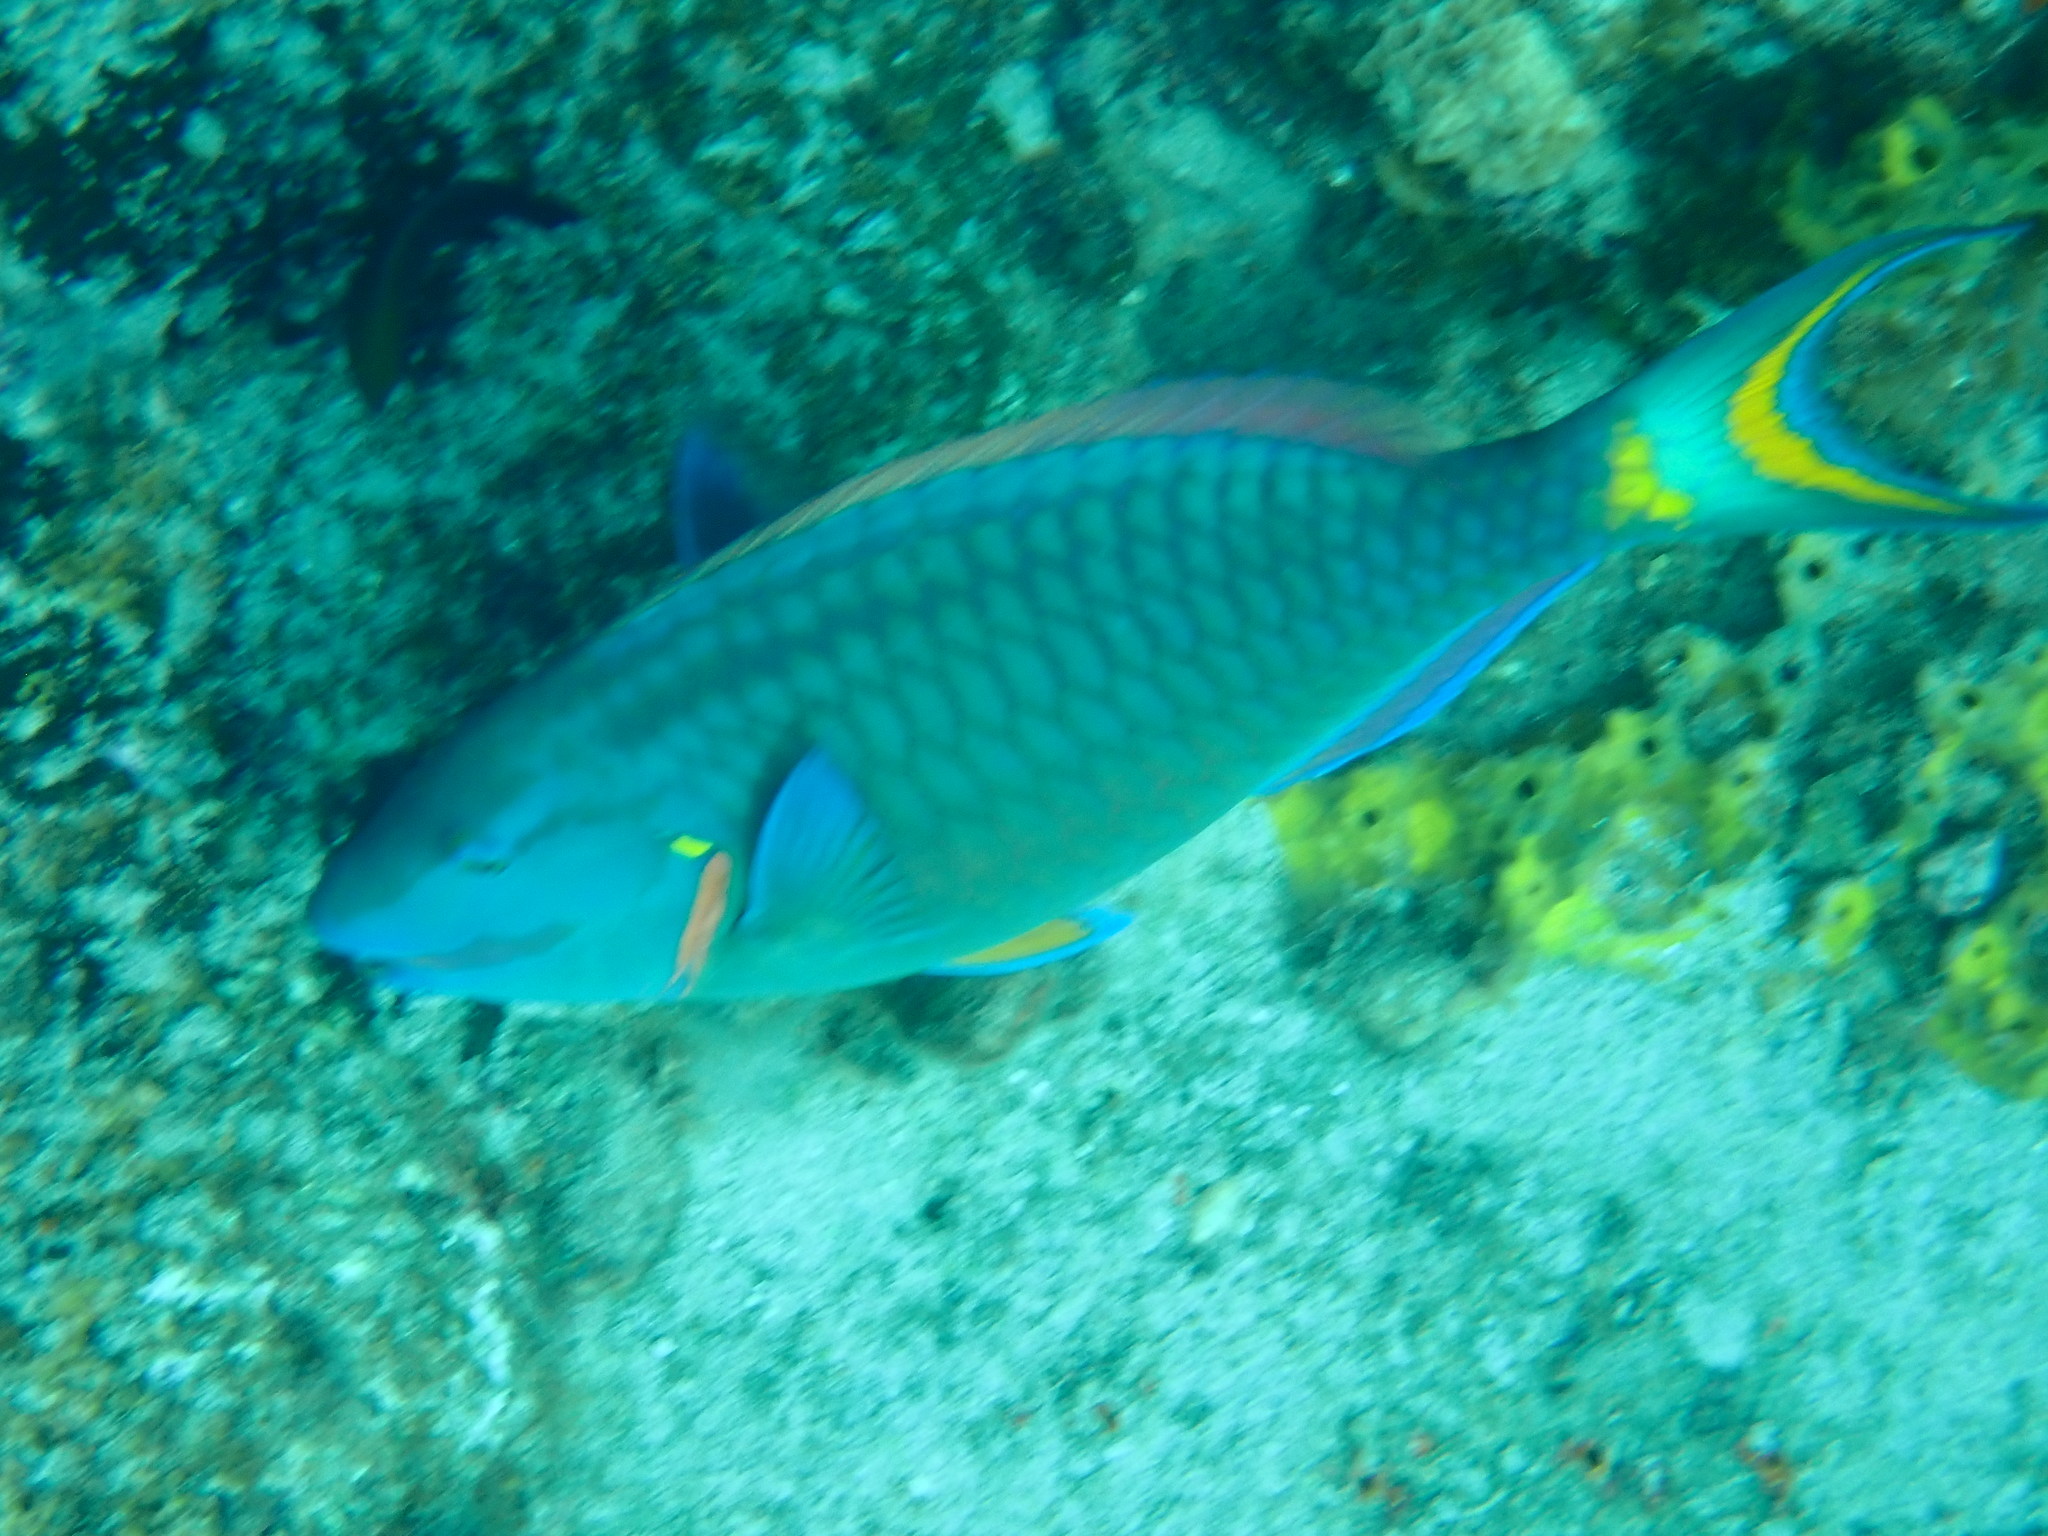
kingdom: Animalia
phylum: Chordata
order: Perciformes
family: Scaridae
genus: Sparisoma
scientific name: Sparisoma viride
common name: Stoplight parrotfish
